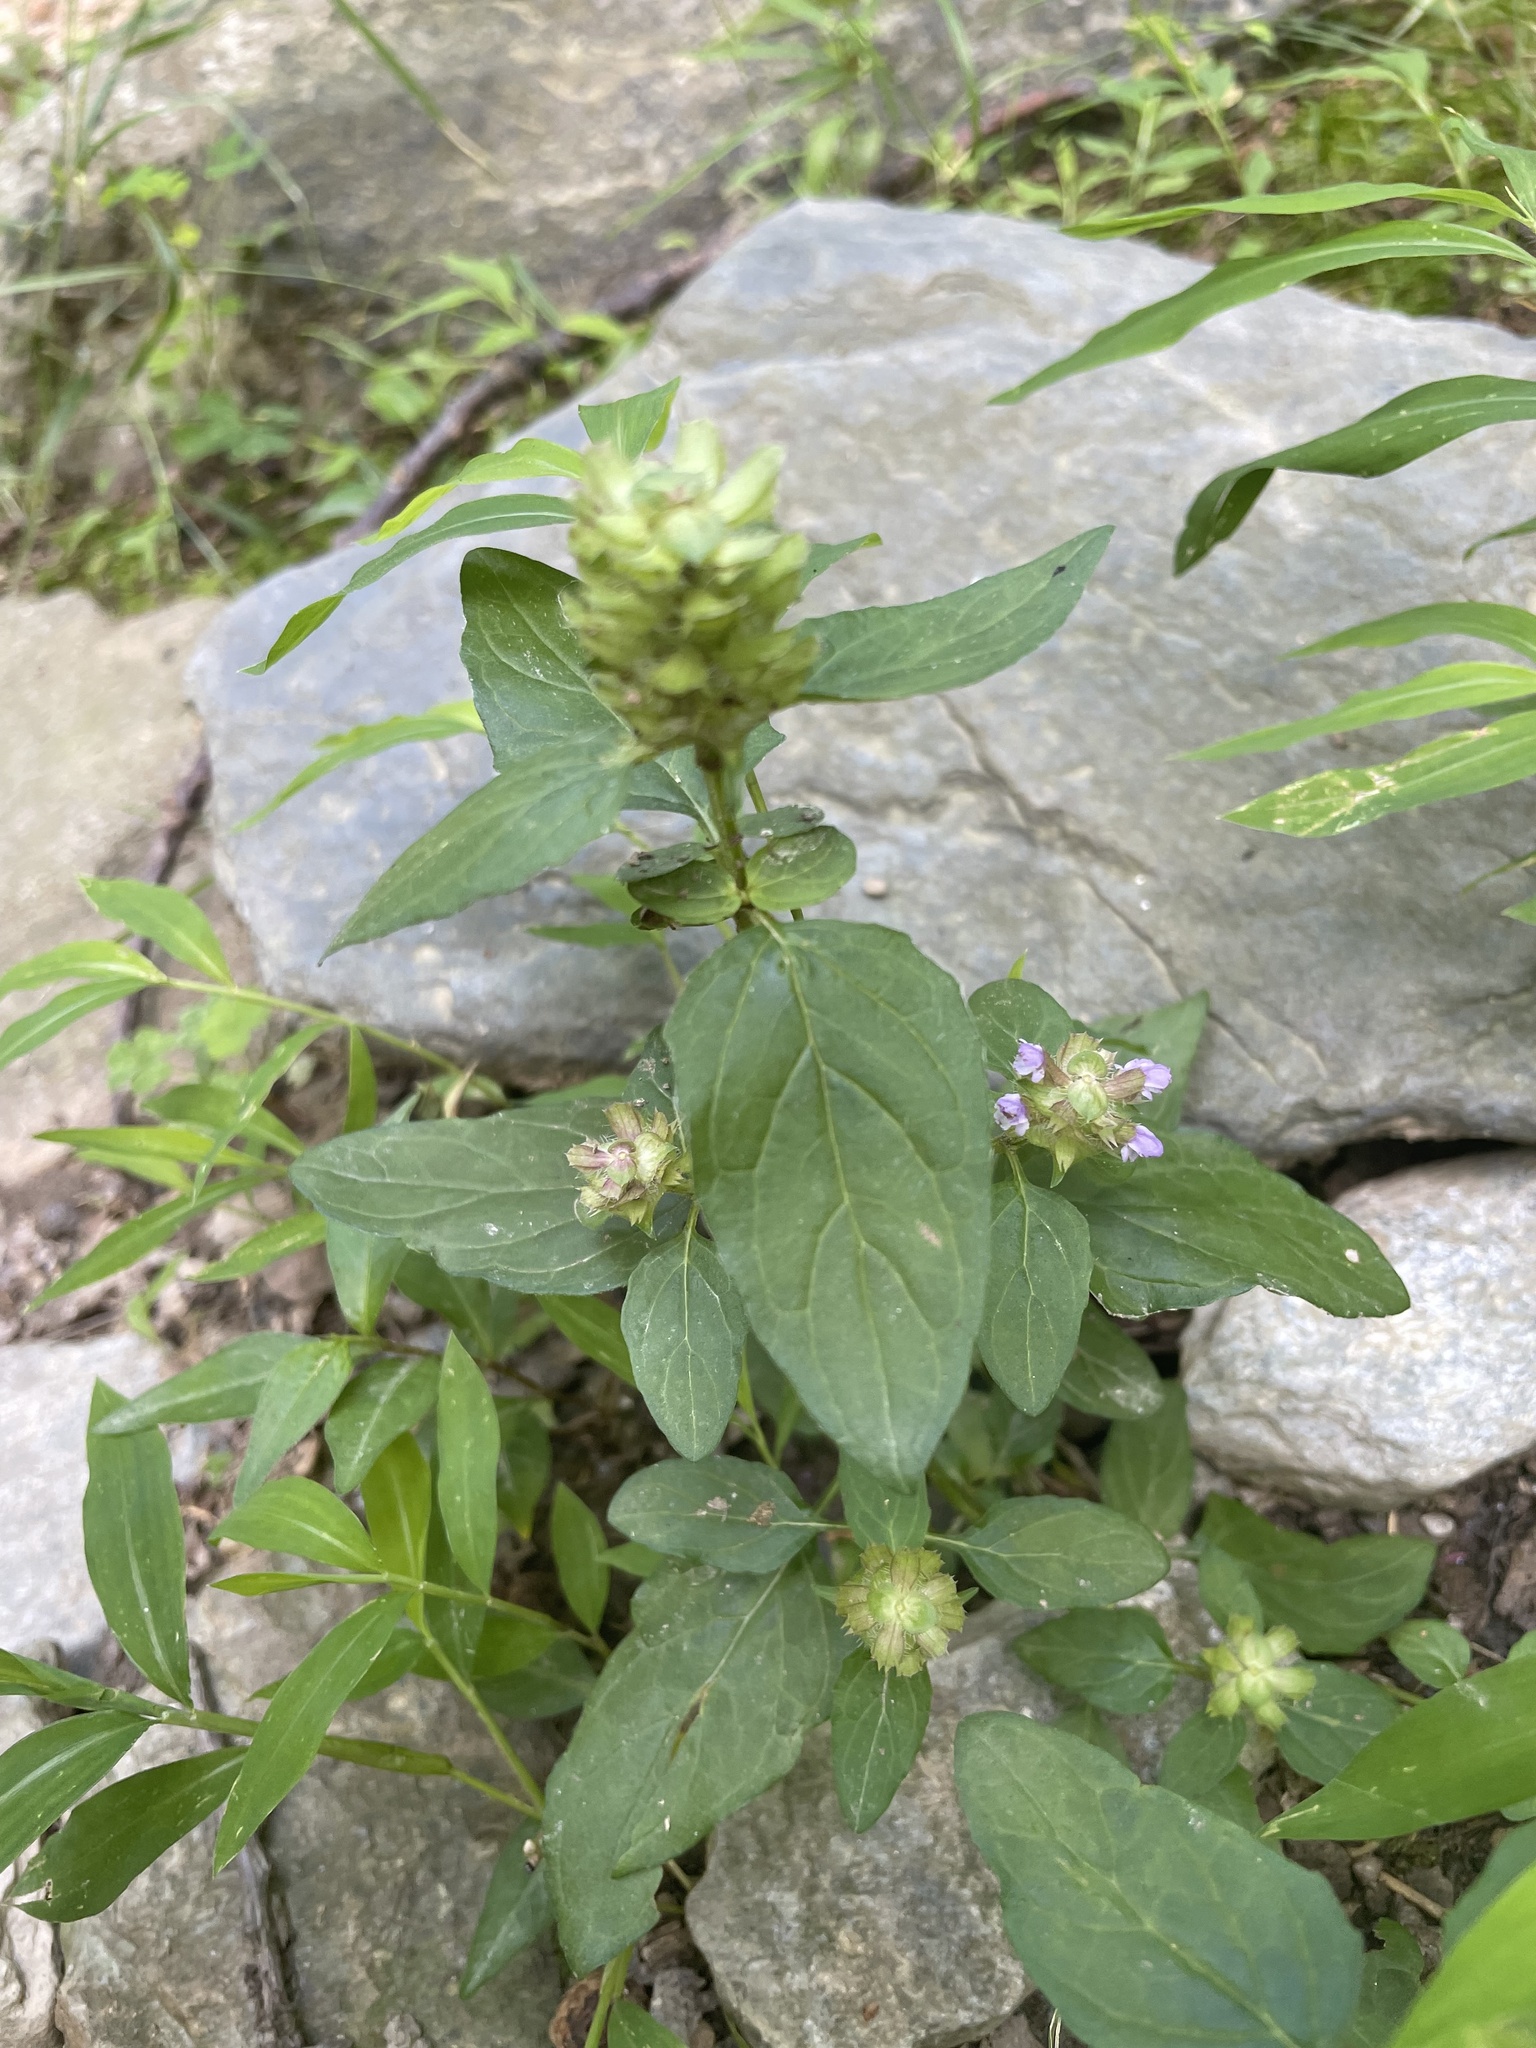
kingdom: Plantae
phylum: Tracheophyta
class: Magnoliopsida
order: Lamiales
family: Lamiaceae
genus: Prunella
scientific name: Prunella vulgaris
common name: Heal-all
